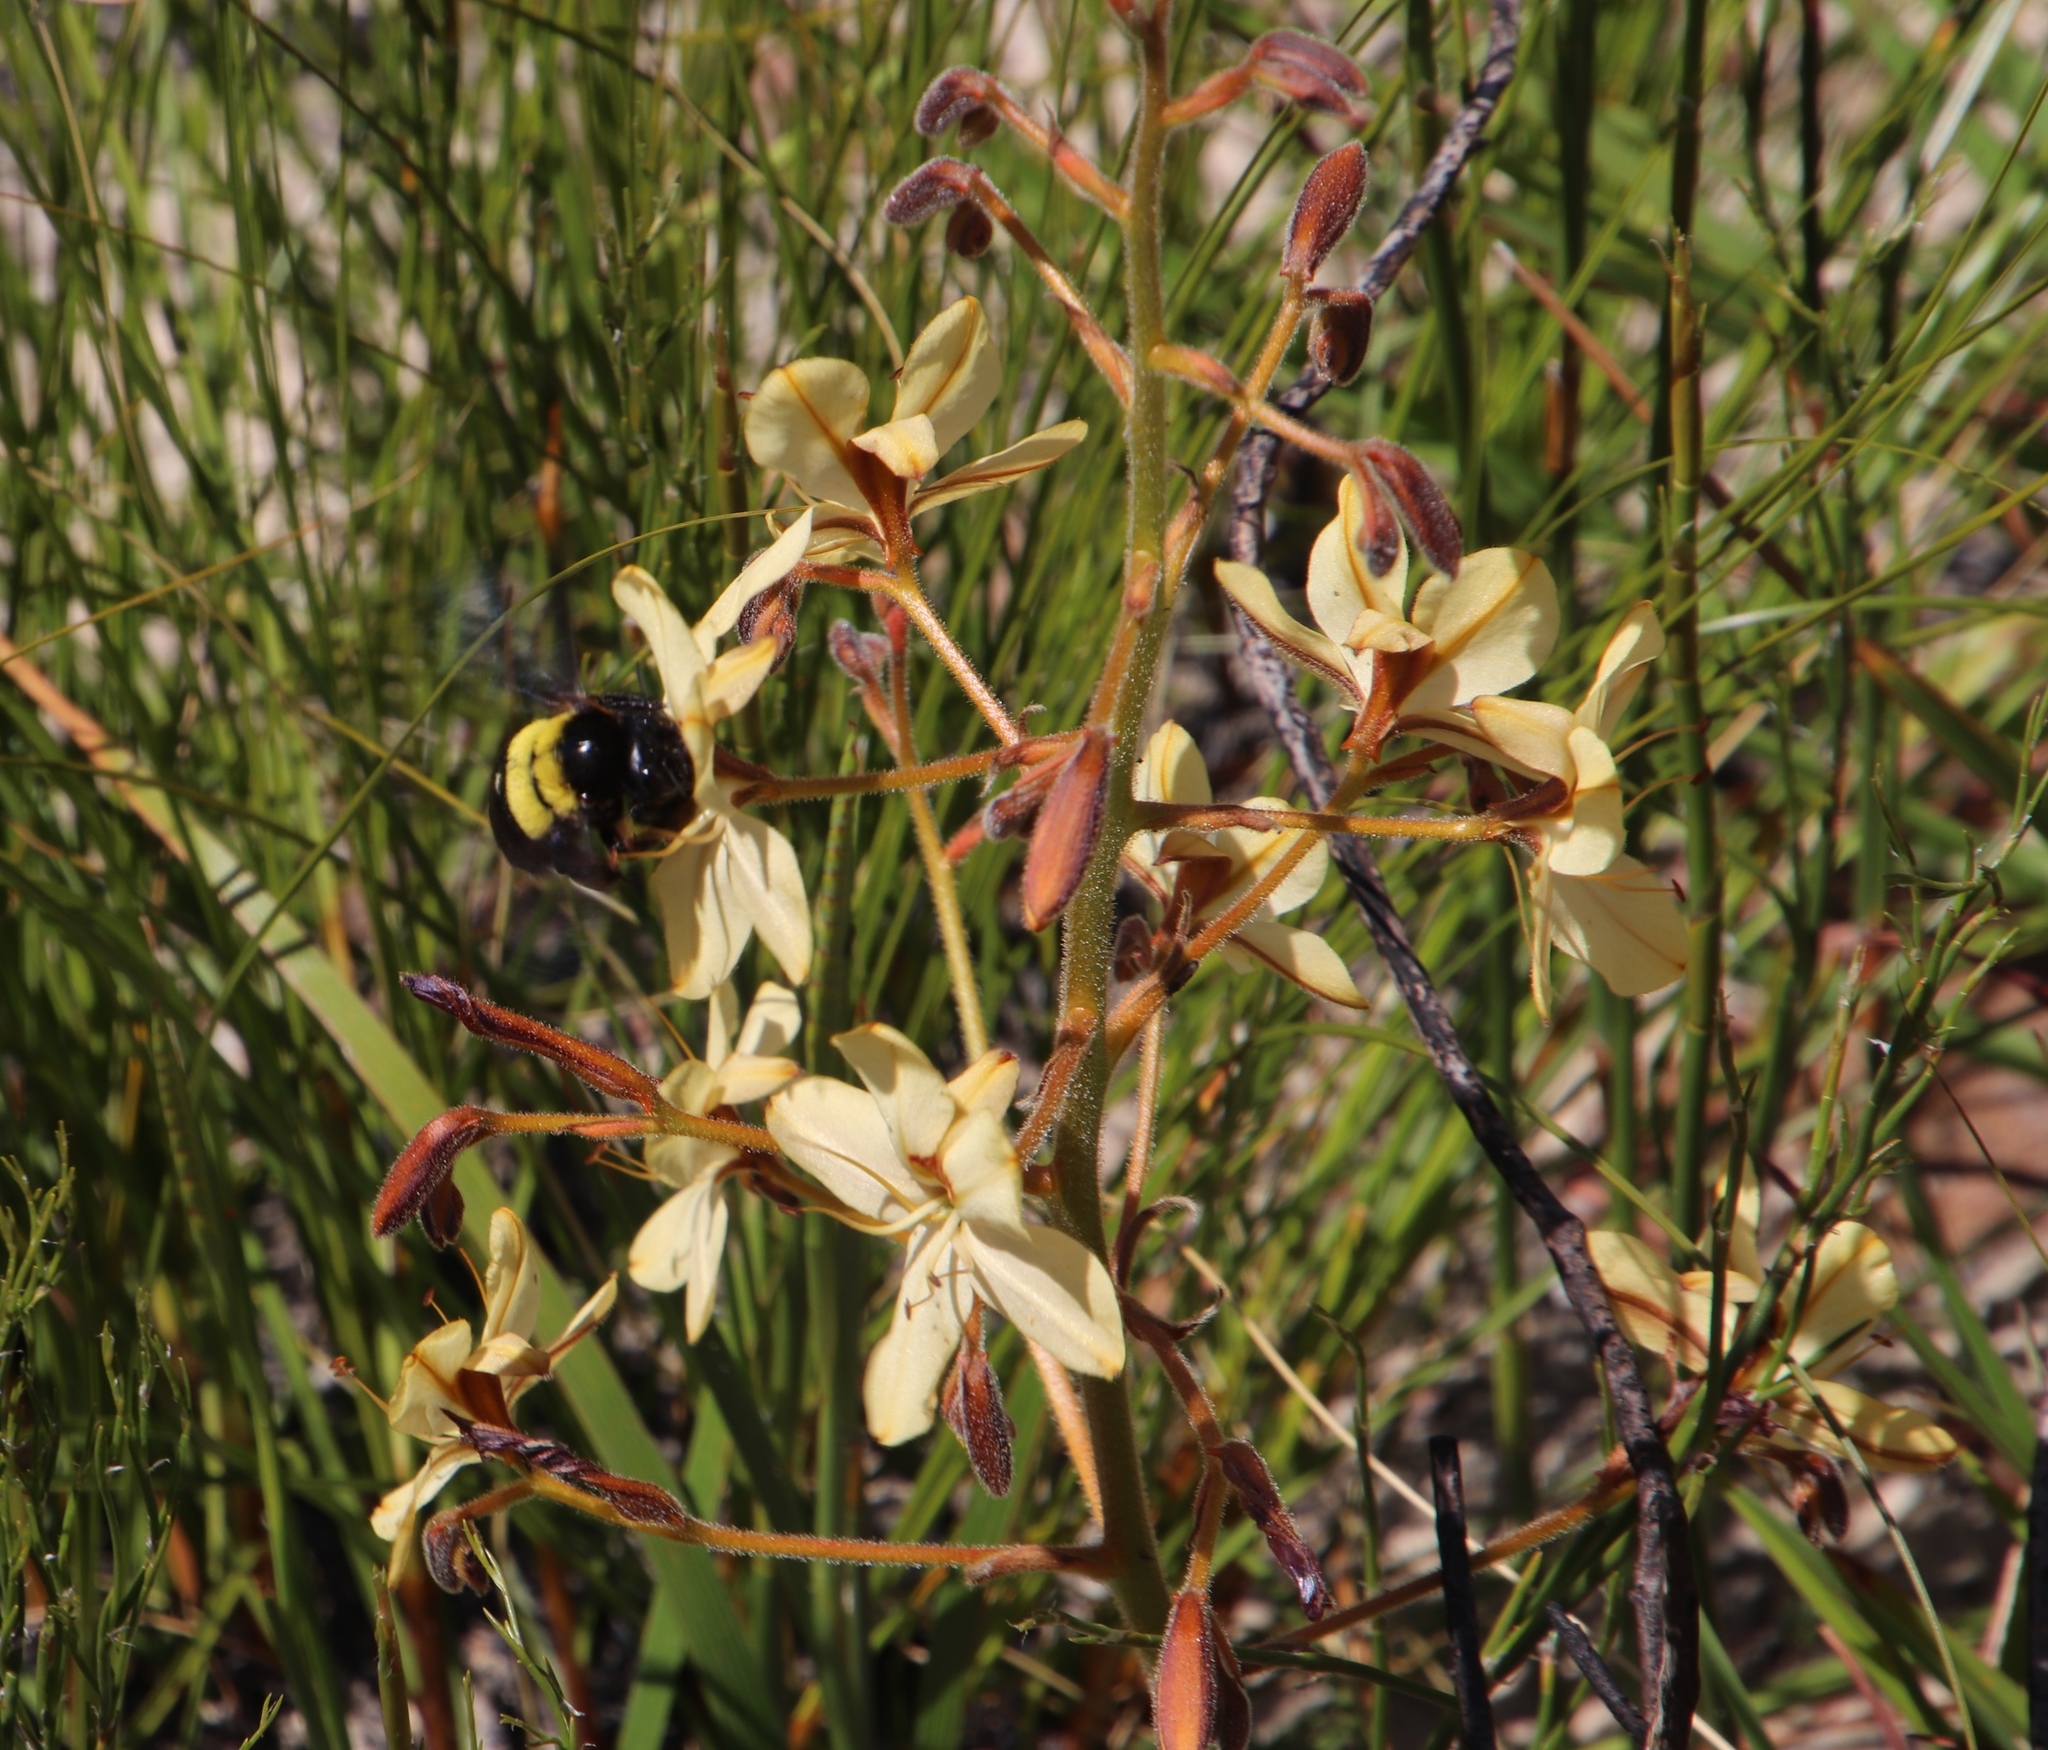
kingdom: Plantae
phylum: Tracheophyta
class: Liliopsida
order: Commelinales
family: Haemodoraceae
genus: Wachendorfia
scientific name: Wachendorfia paniculata
